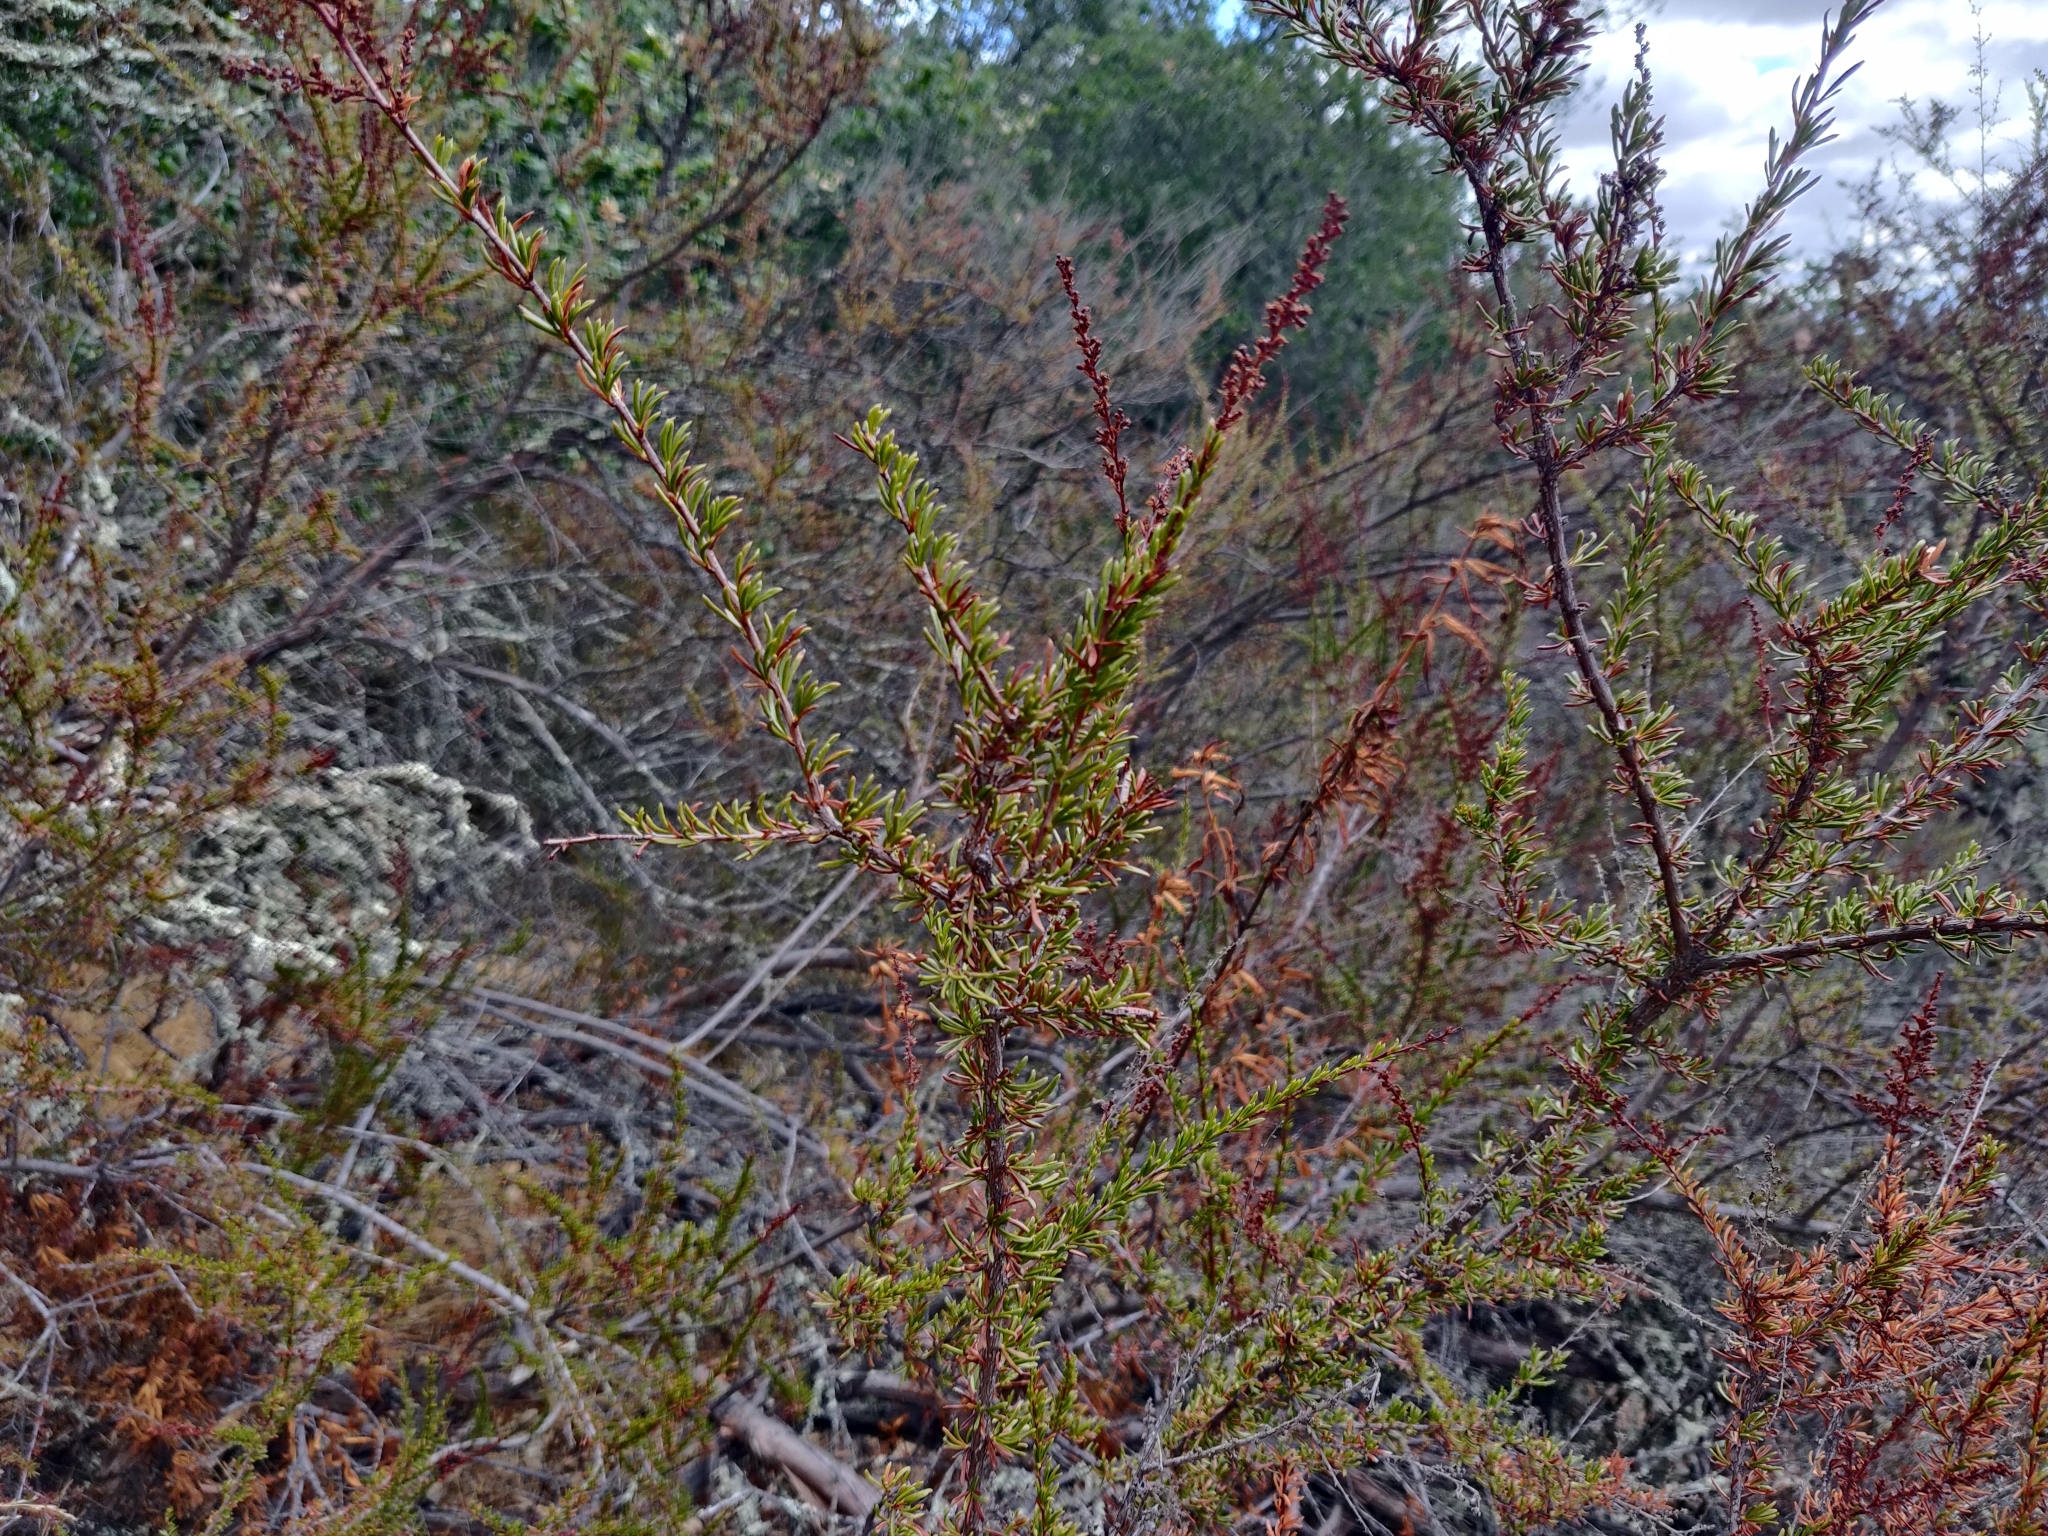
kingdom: Plantae
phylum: Tracheophyta
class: Magnoliopsida
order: Rosales
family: Rosaceae
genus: Adenostoma
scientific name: Adenostoma fasciculatum
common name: Chamise
